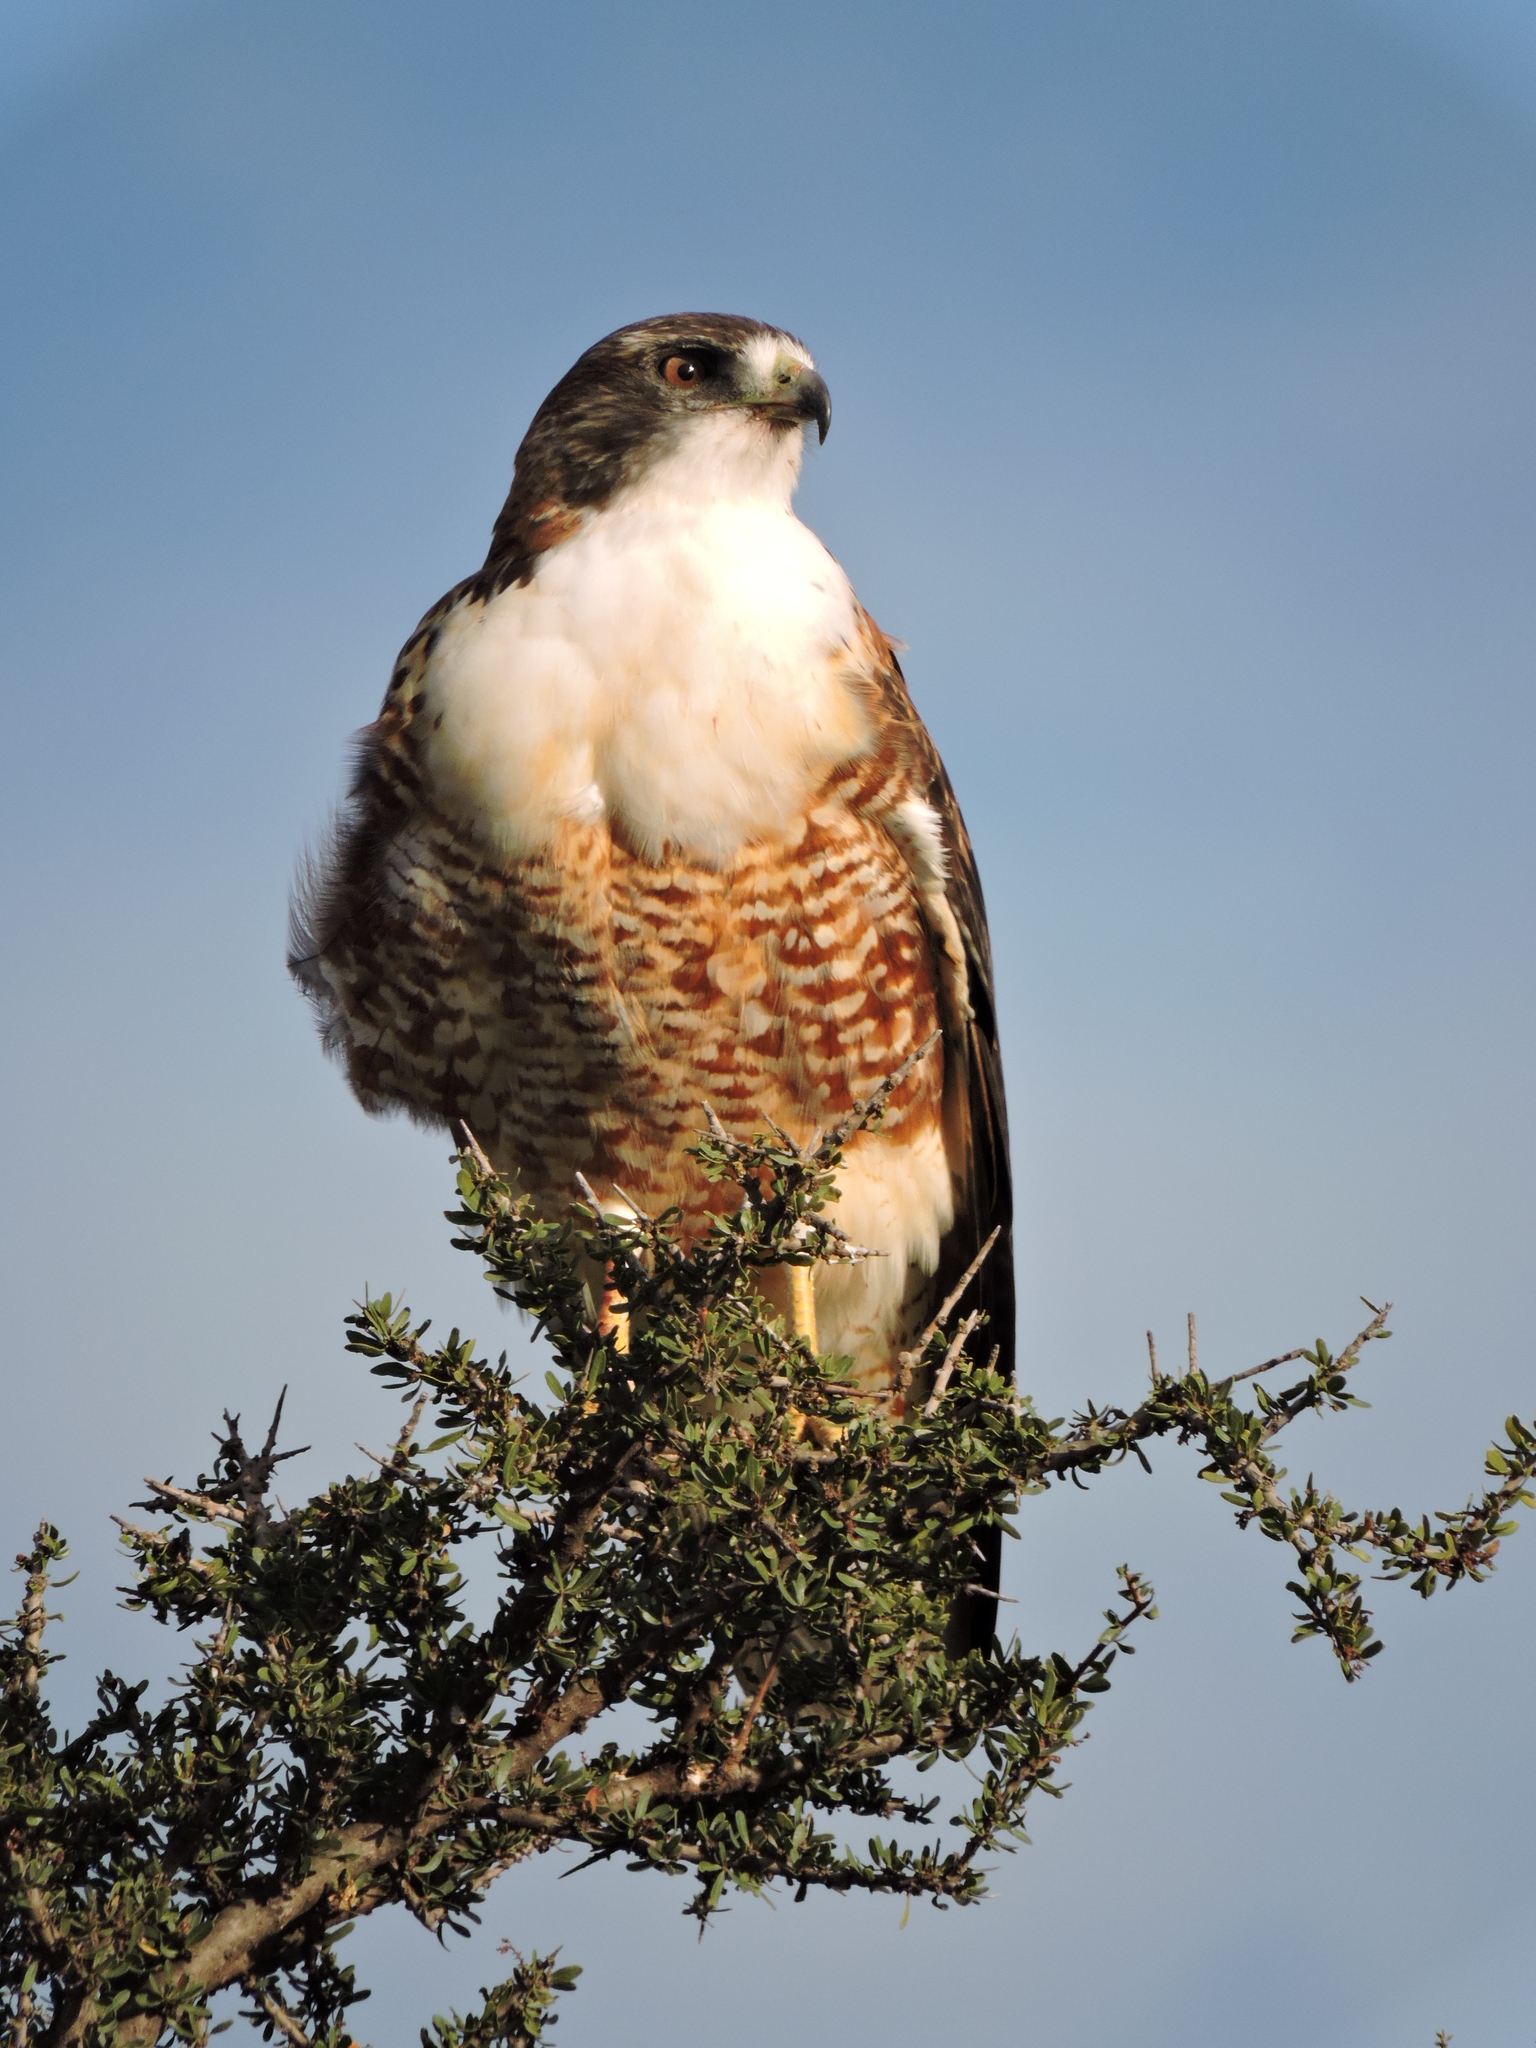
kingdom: Animalia
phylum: Chordata
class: Aves
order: Accipitriformes
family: Accipitridae
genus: Buteo
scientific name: Buteo polyosoma
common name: Variable hawk
